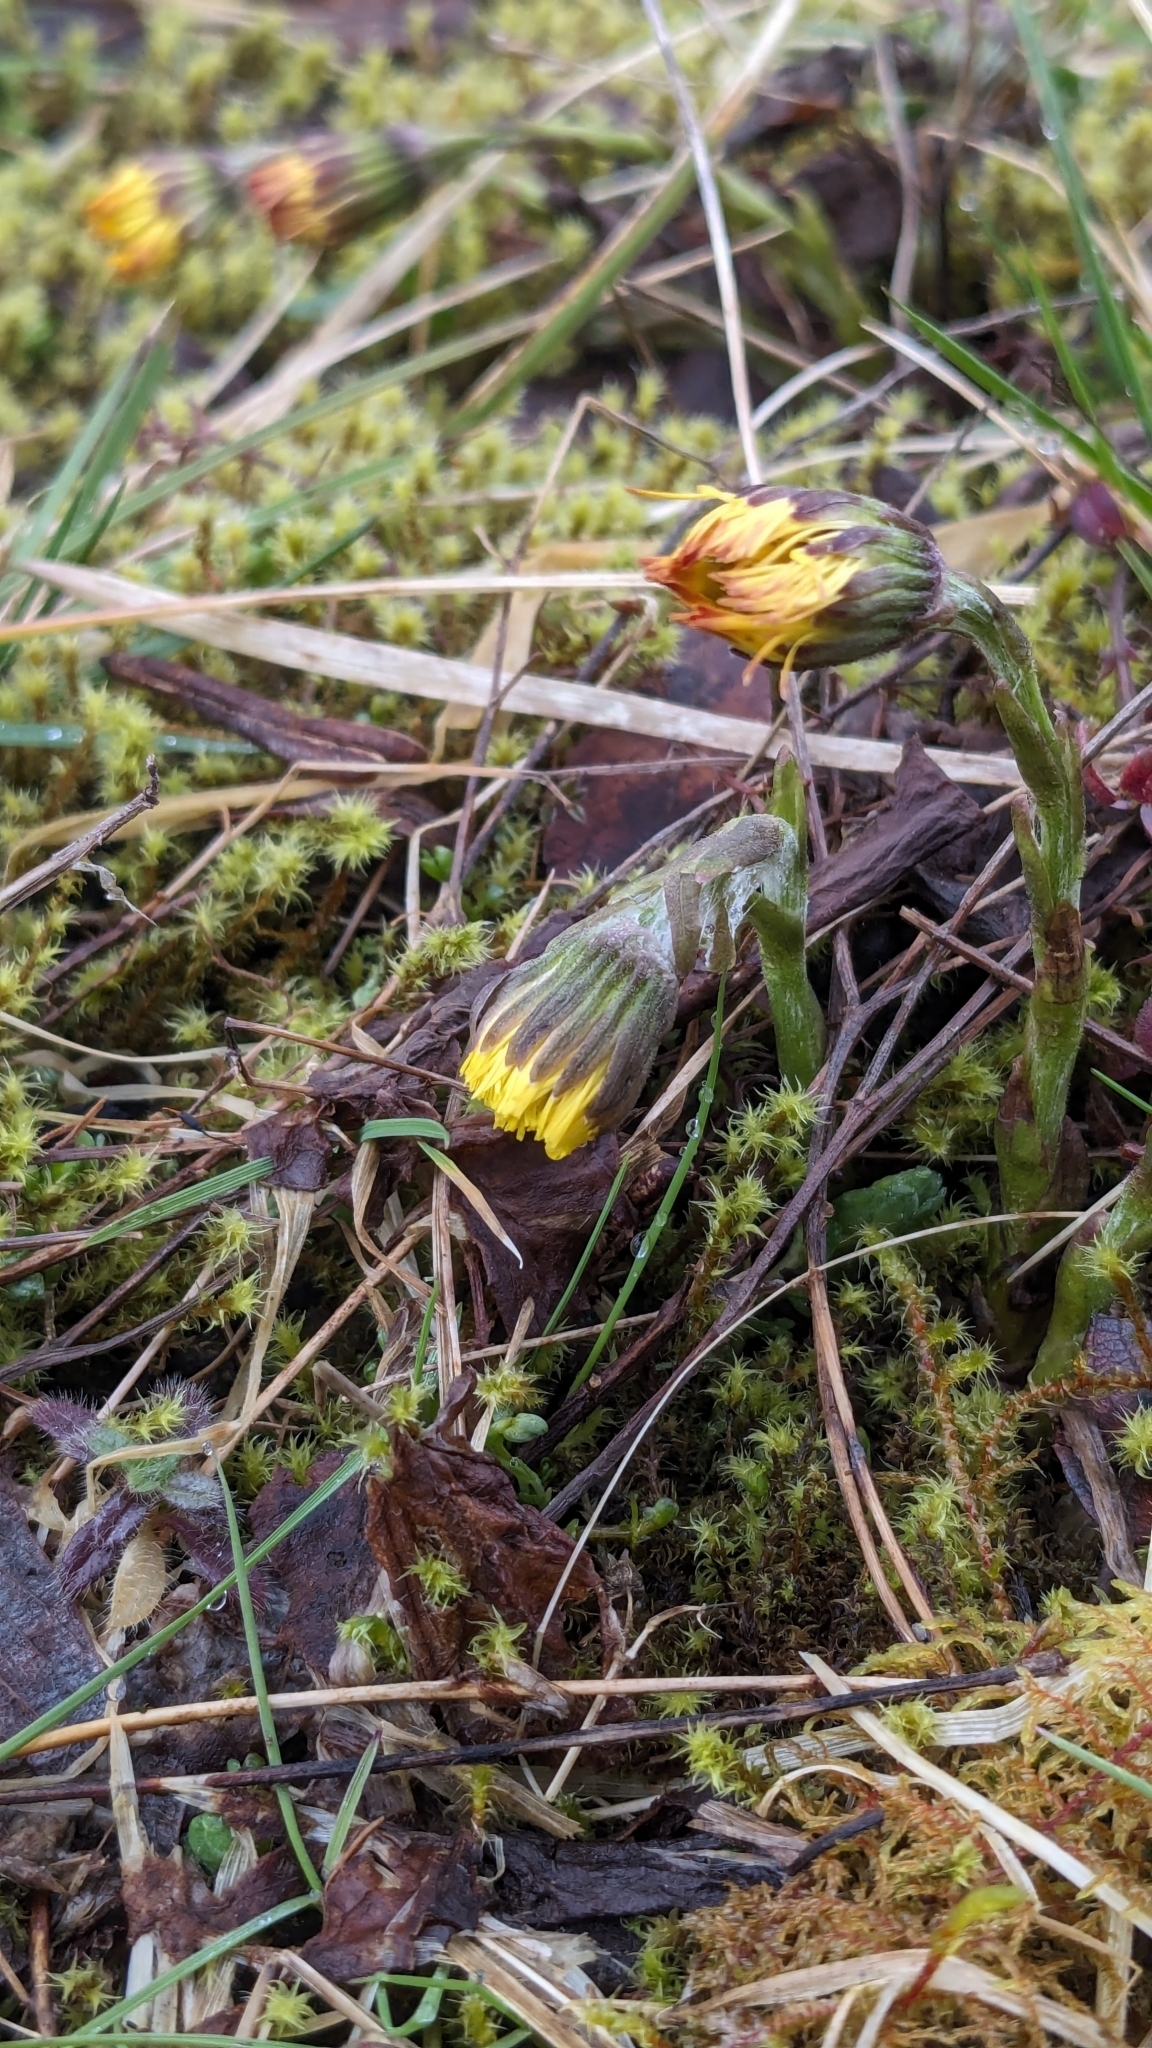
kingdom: Plantae
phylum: Tracheophyta
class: Magnoliopsida
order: Asterales
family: Asteraceae
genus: Tussilago
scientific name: Tussilago farfara
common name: Coltsfoot
